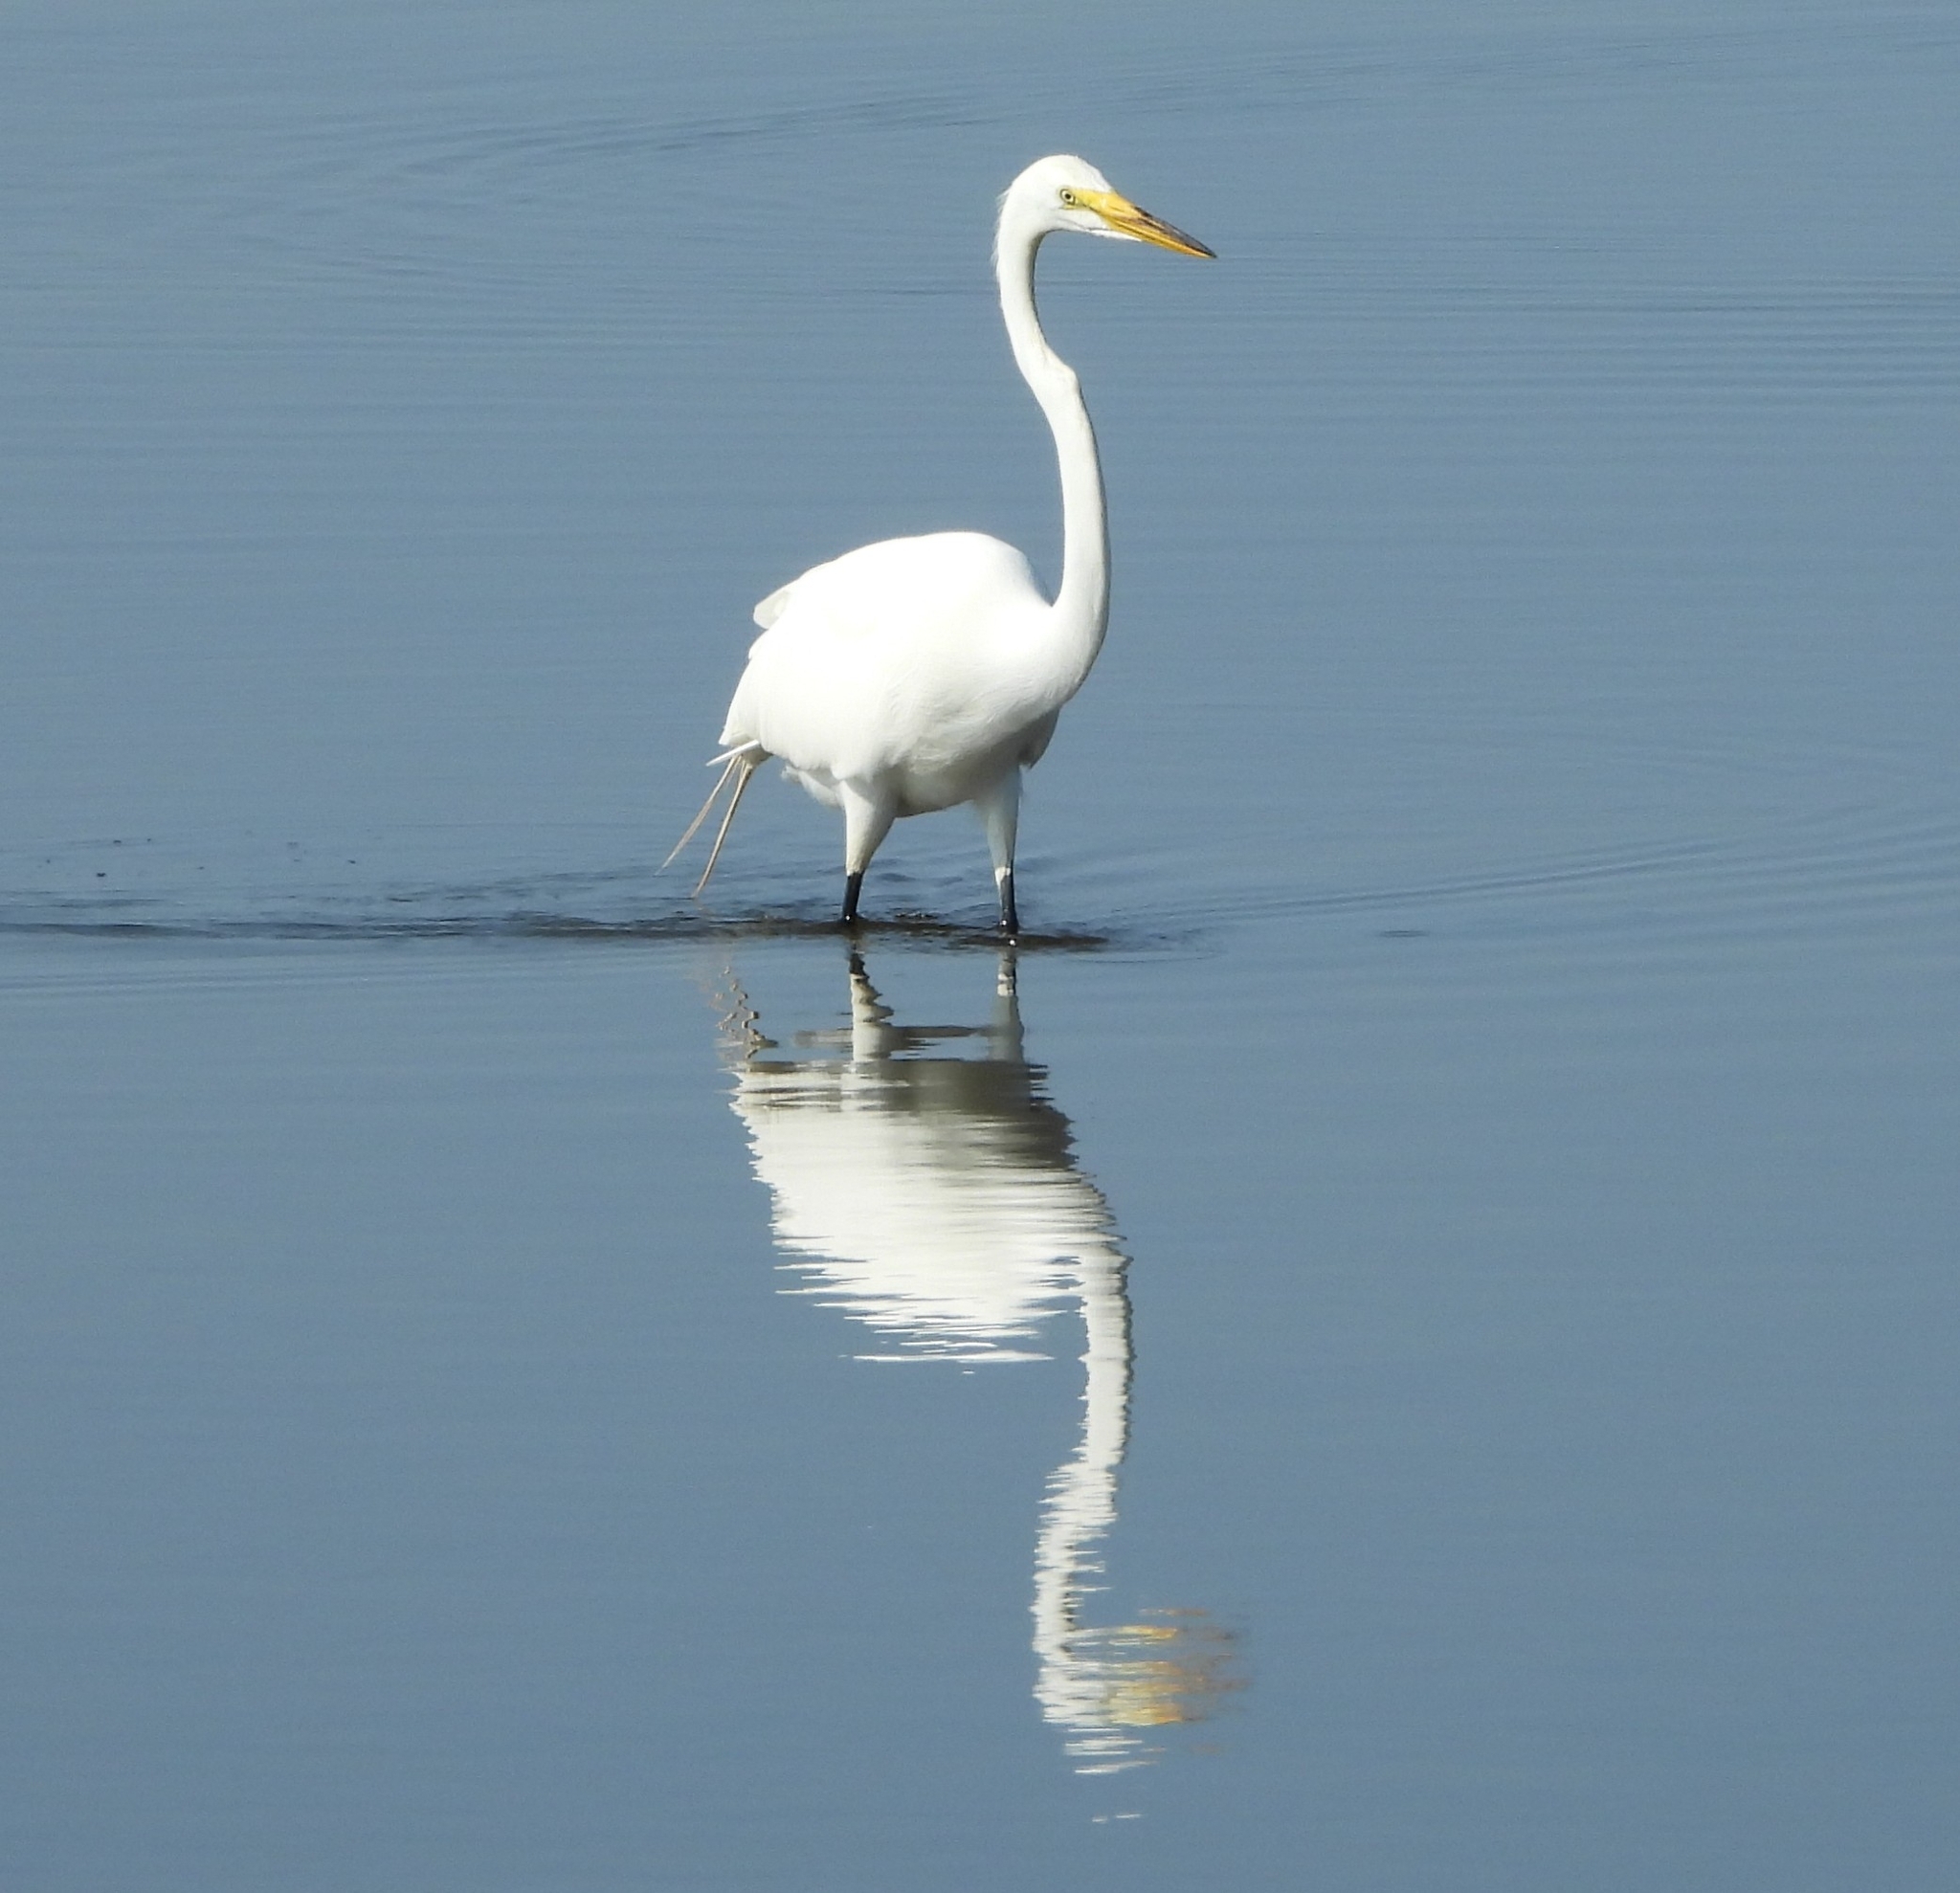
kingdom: Animalia
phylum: Chordata
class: Aves
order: Pelecaniformes
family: Ardeidae
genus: Ardea
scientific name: Ardea alba
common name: Great egret
